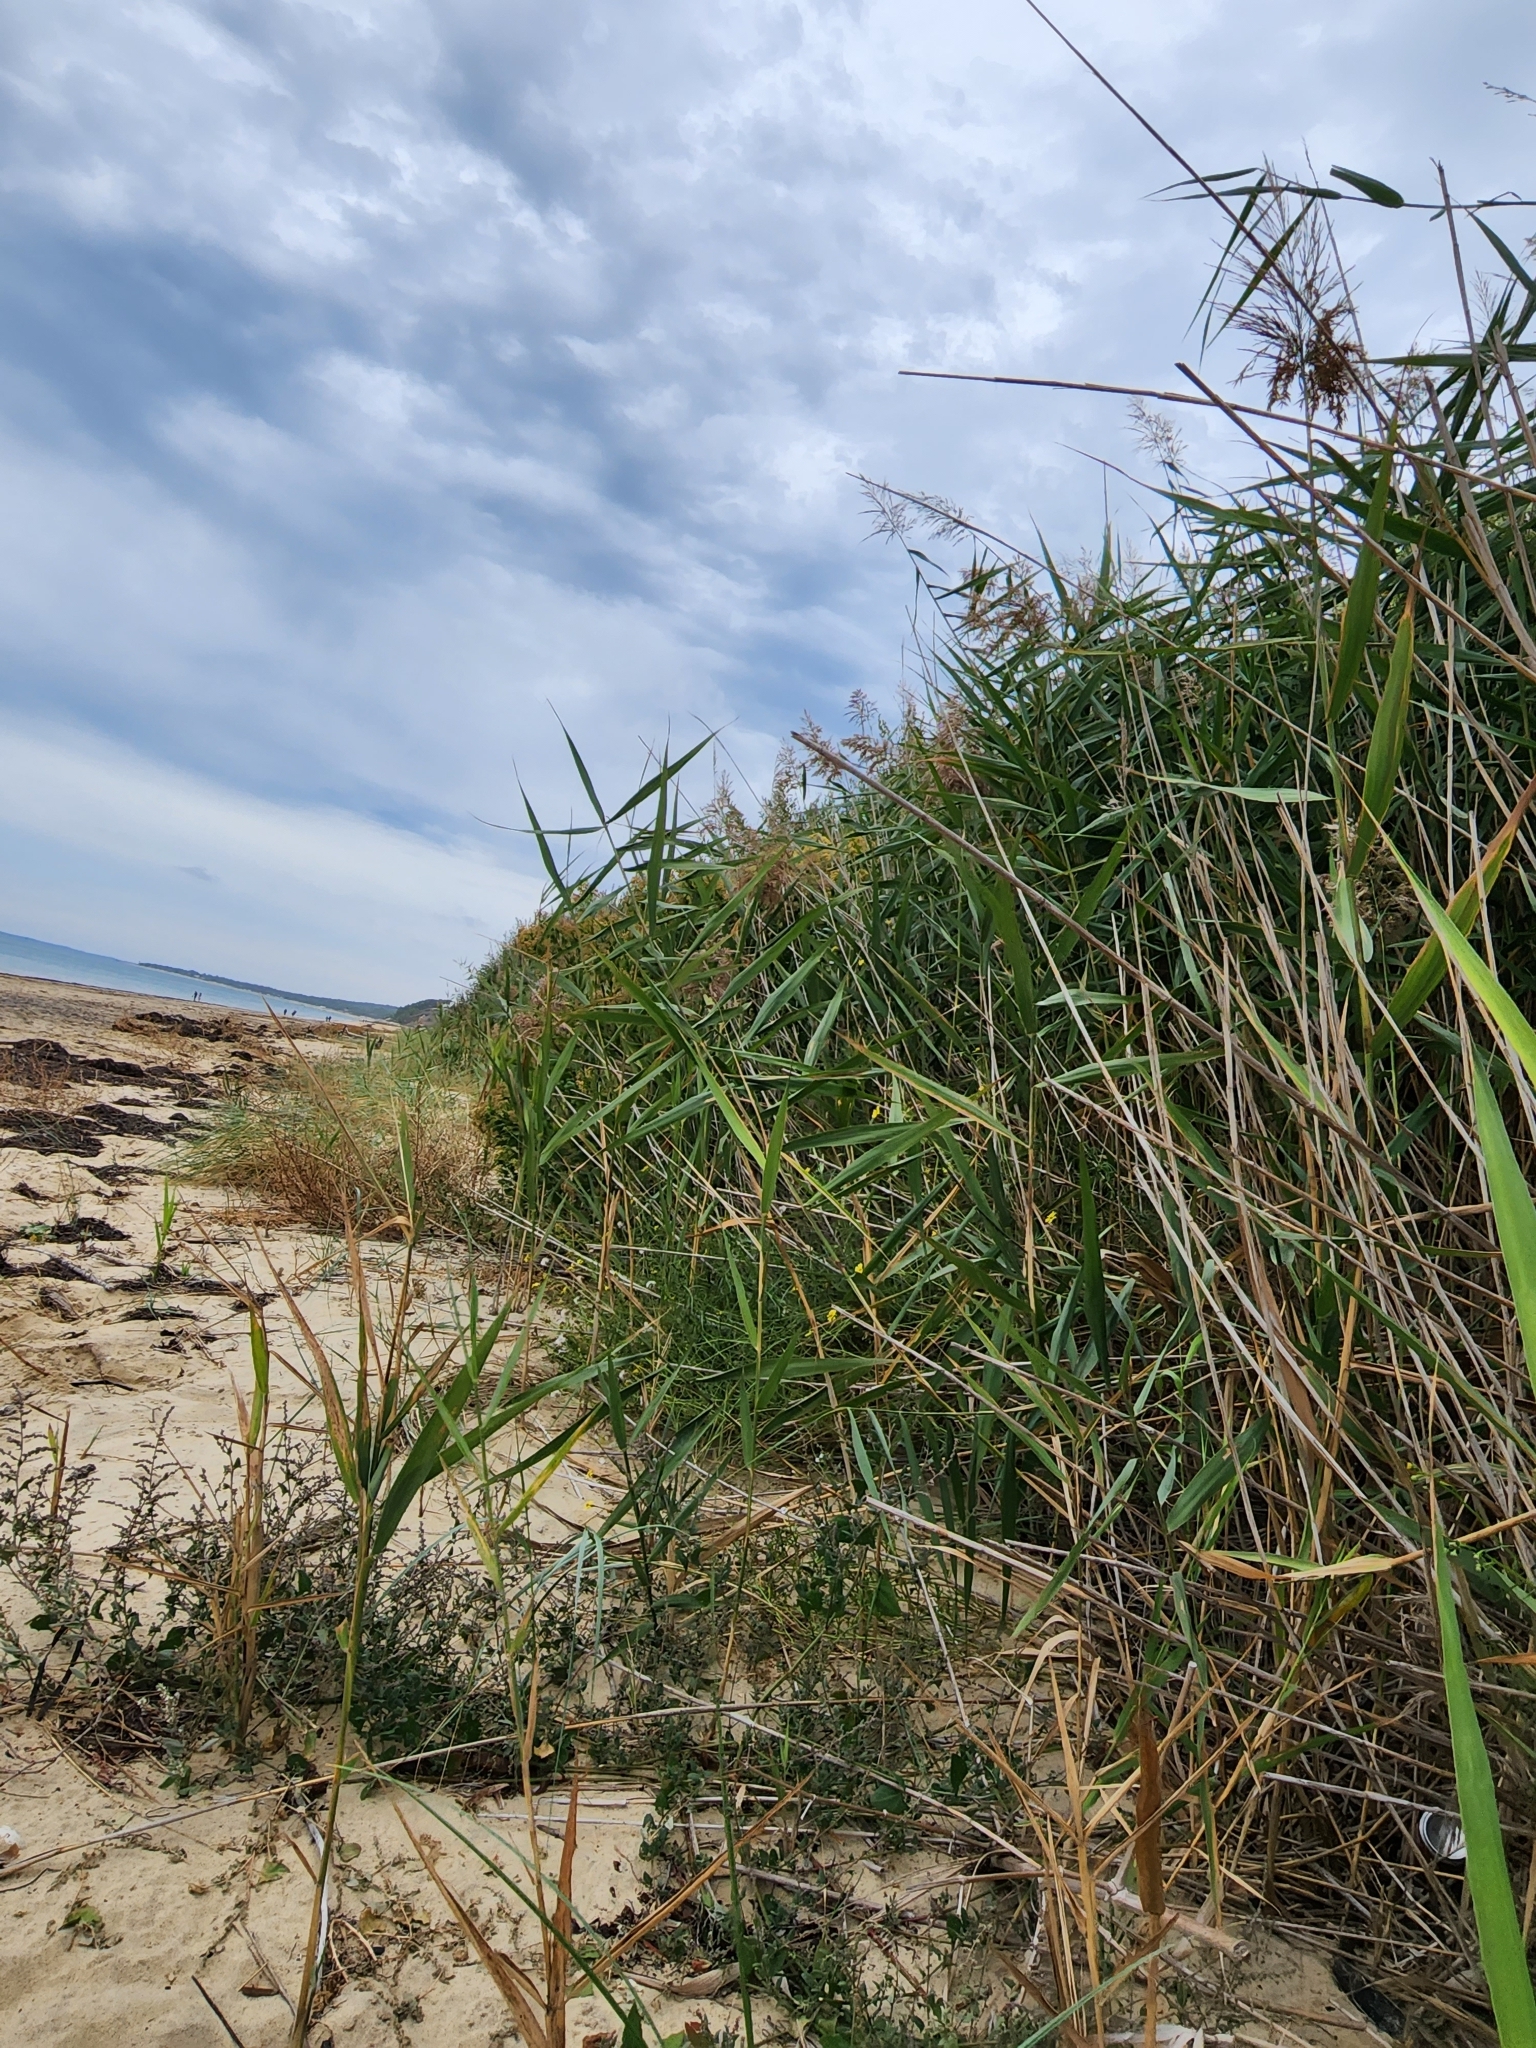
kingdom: Plantae
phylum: Tracheophyta
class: Liliopsida
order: Poales
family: Poaceae
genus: Phragmites
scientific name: Phragmites australis
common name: Common reed
